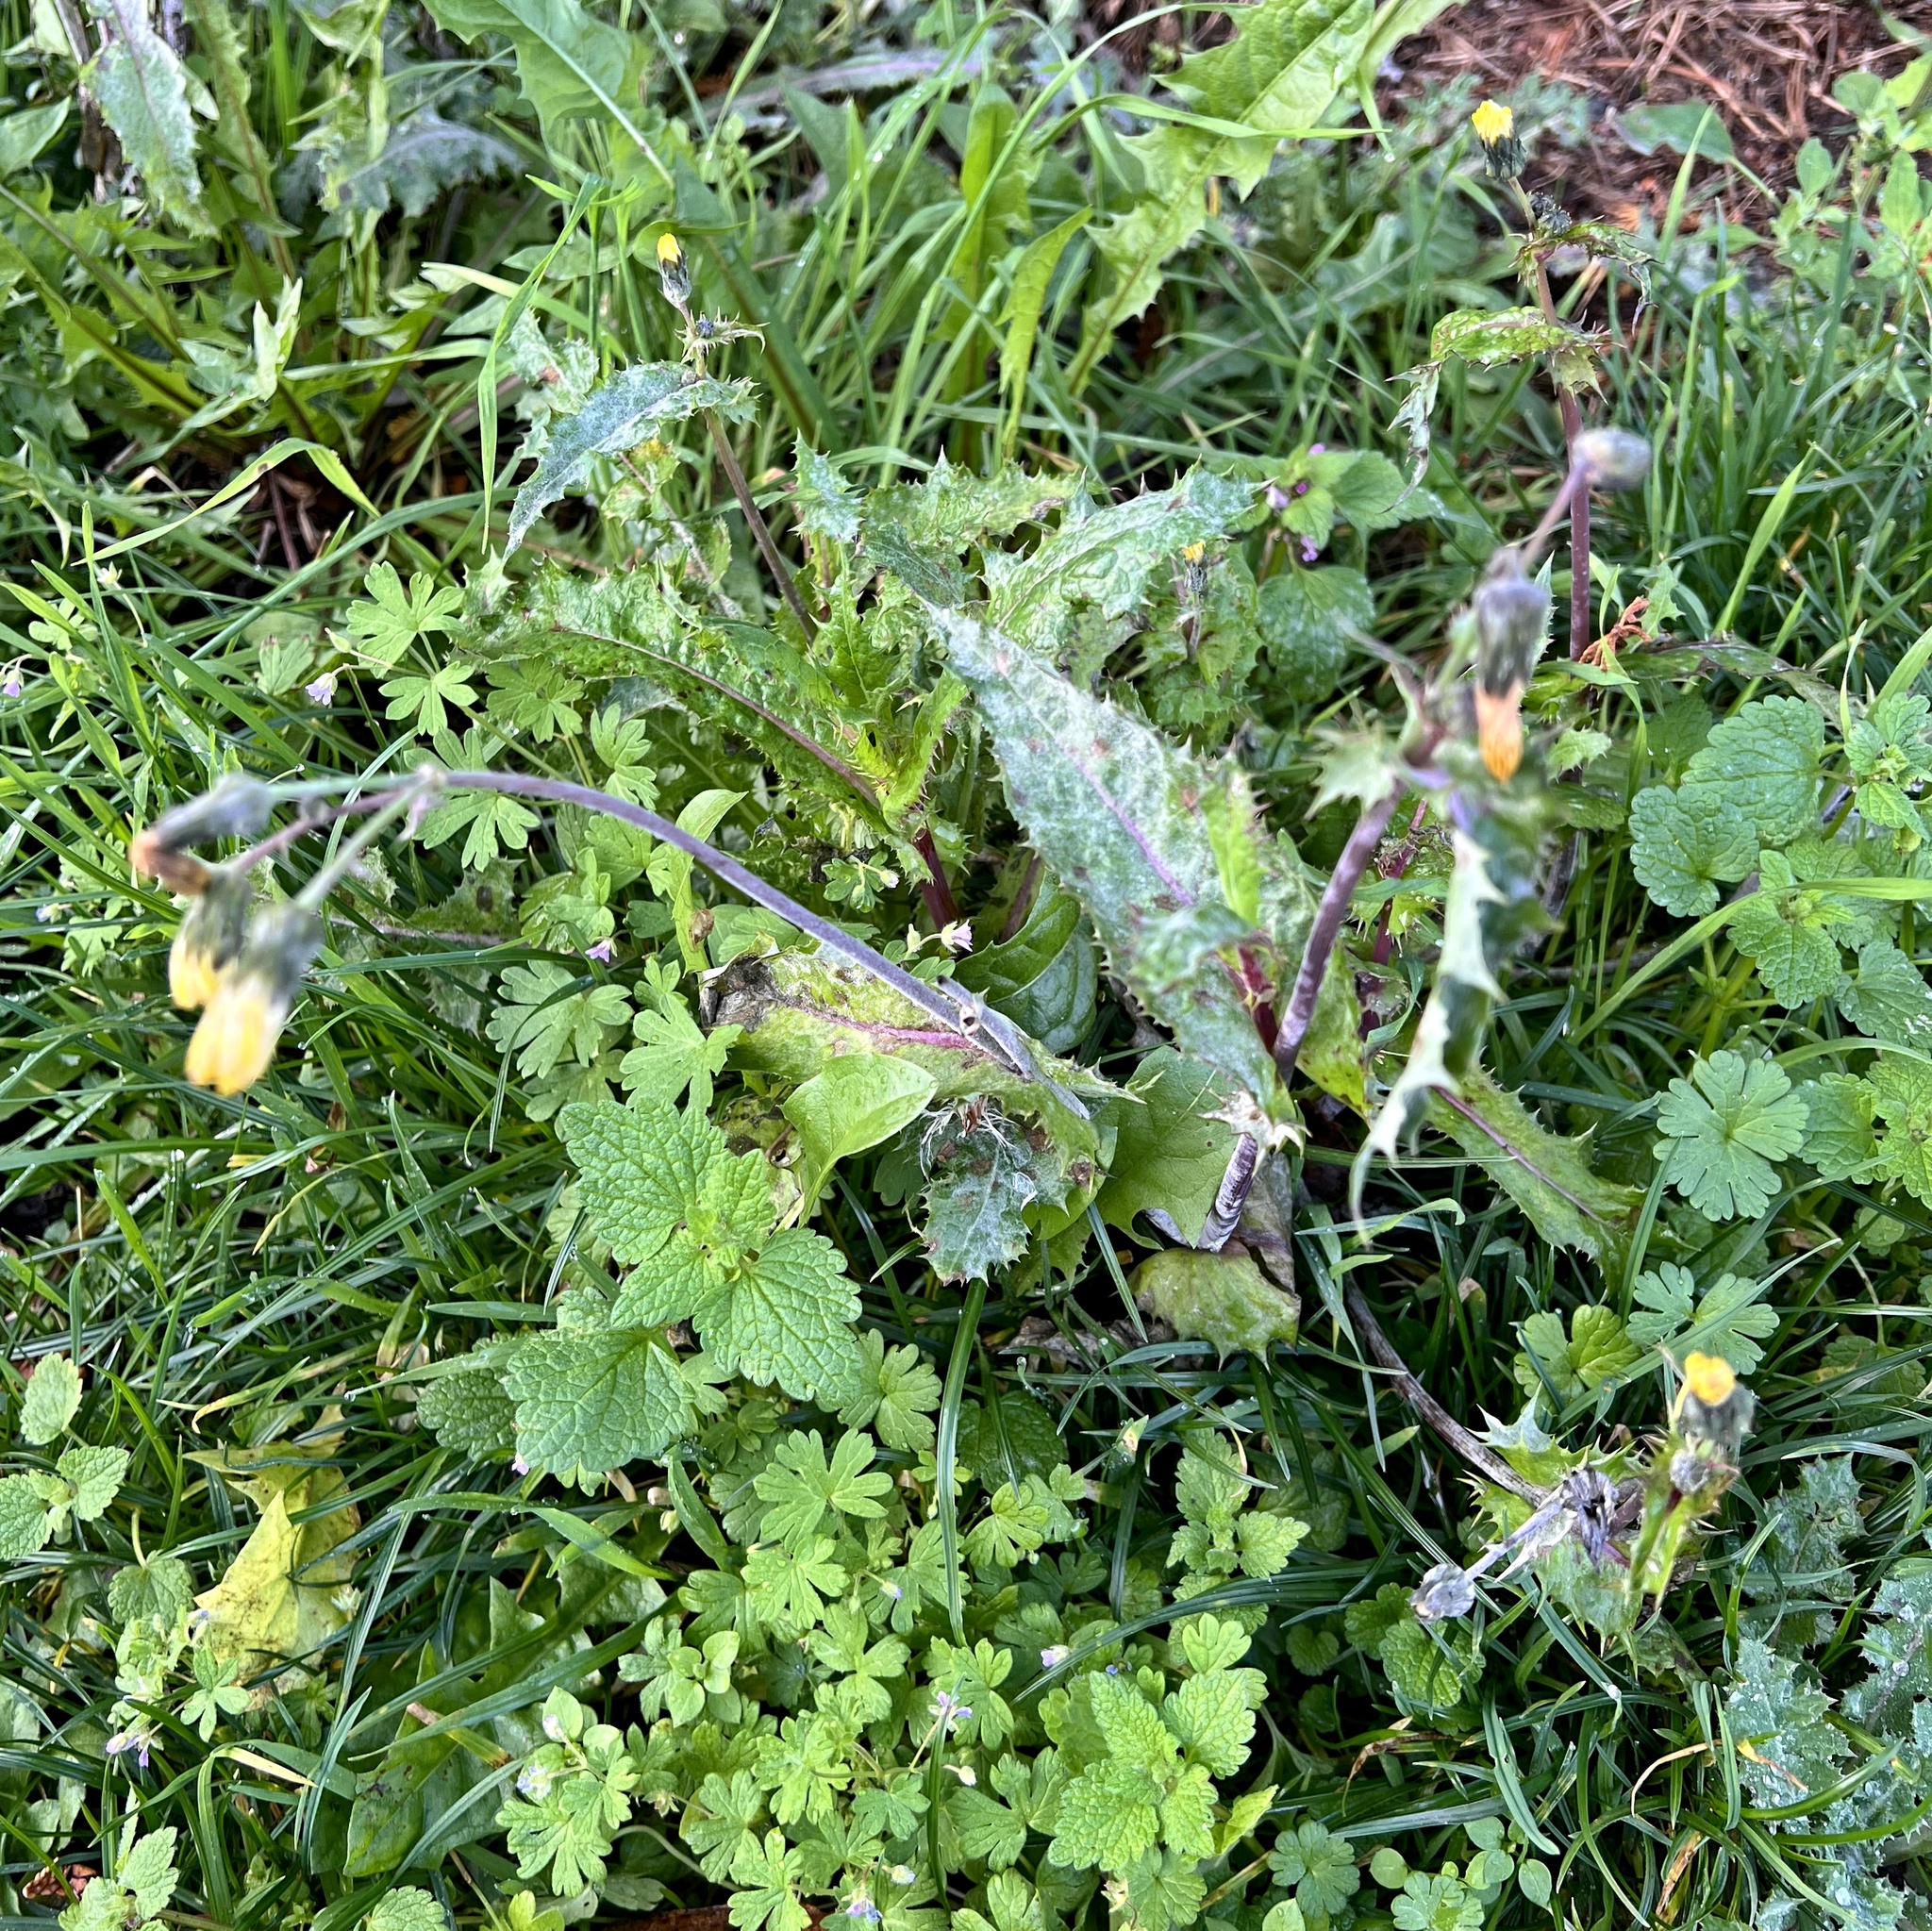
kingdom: Plantae
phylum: Tracheophyta
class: Magnoliopsida
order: Asterales
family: Asteraceae
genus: Sonchus
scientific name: Sonchus asper
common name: Prickly sow-thistle
